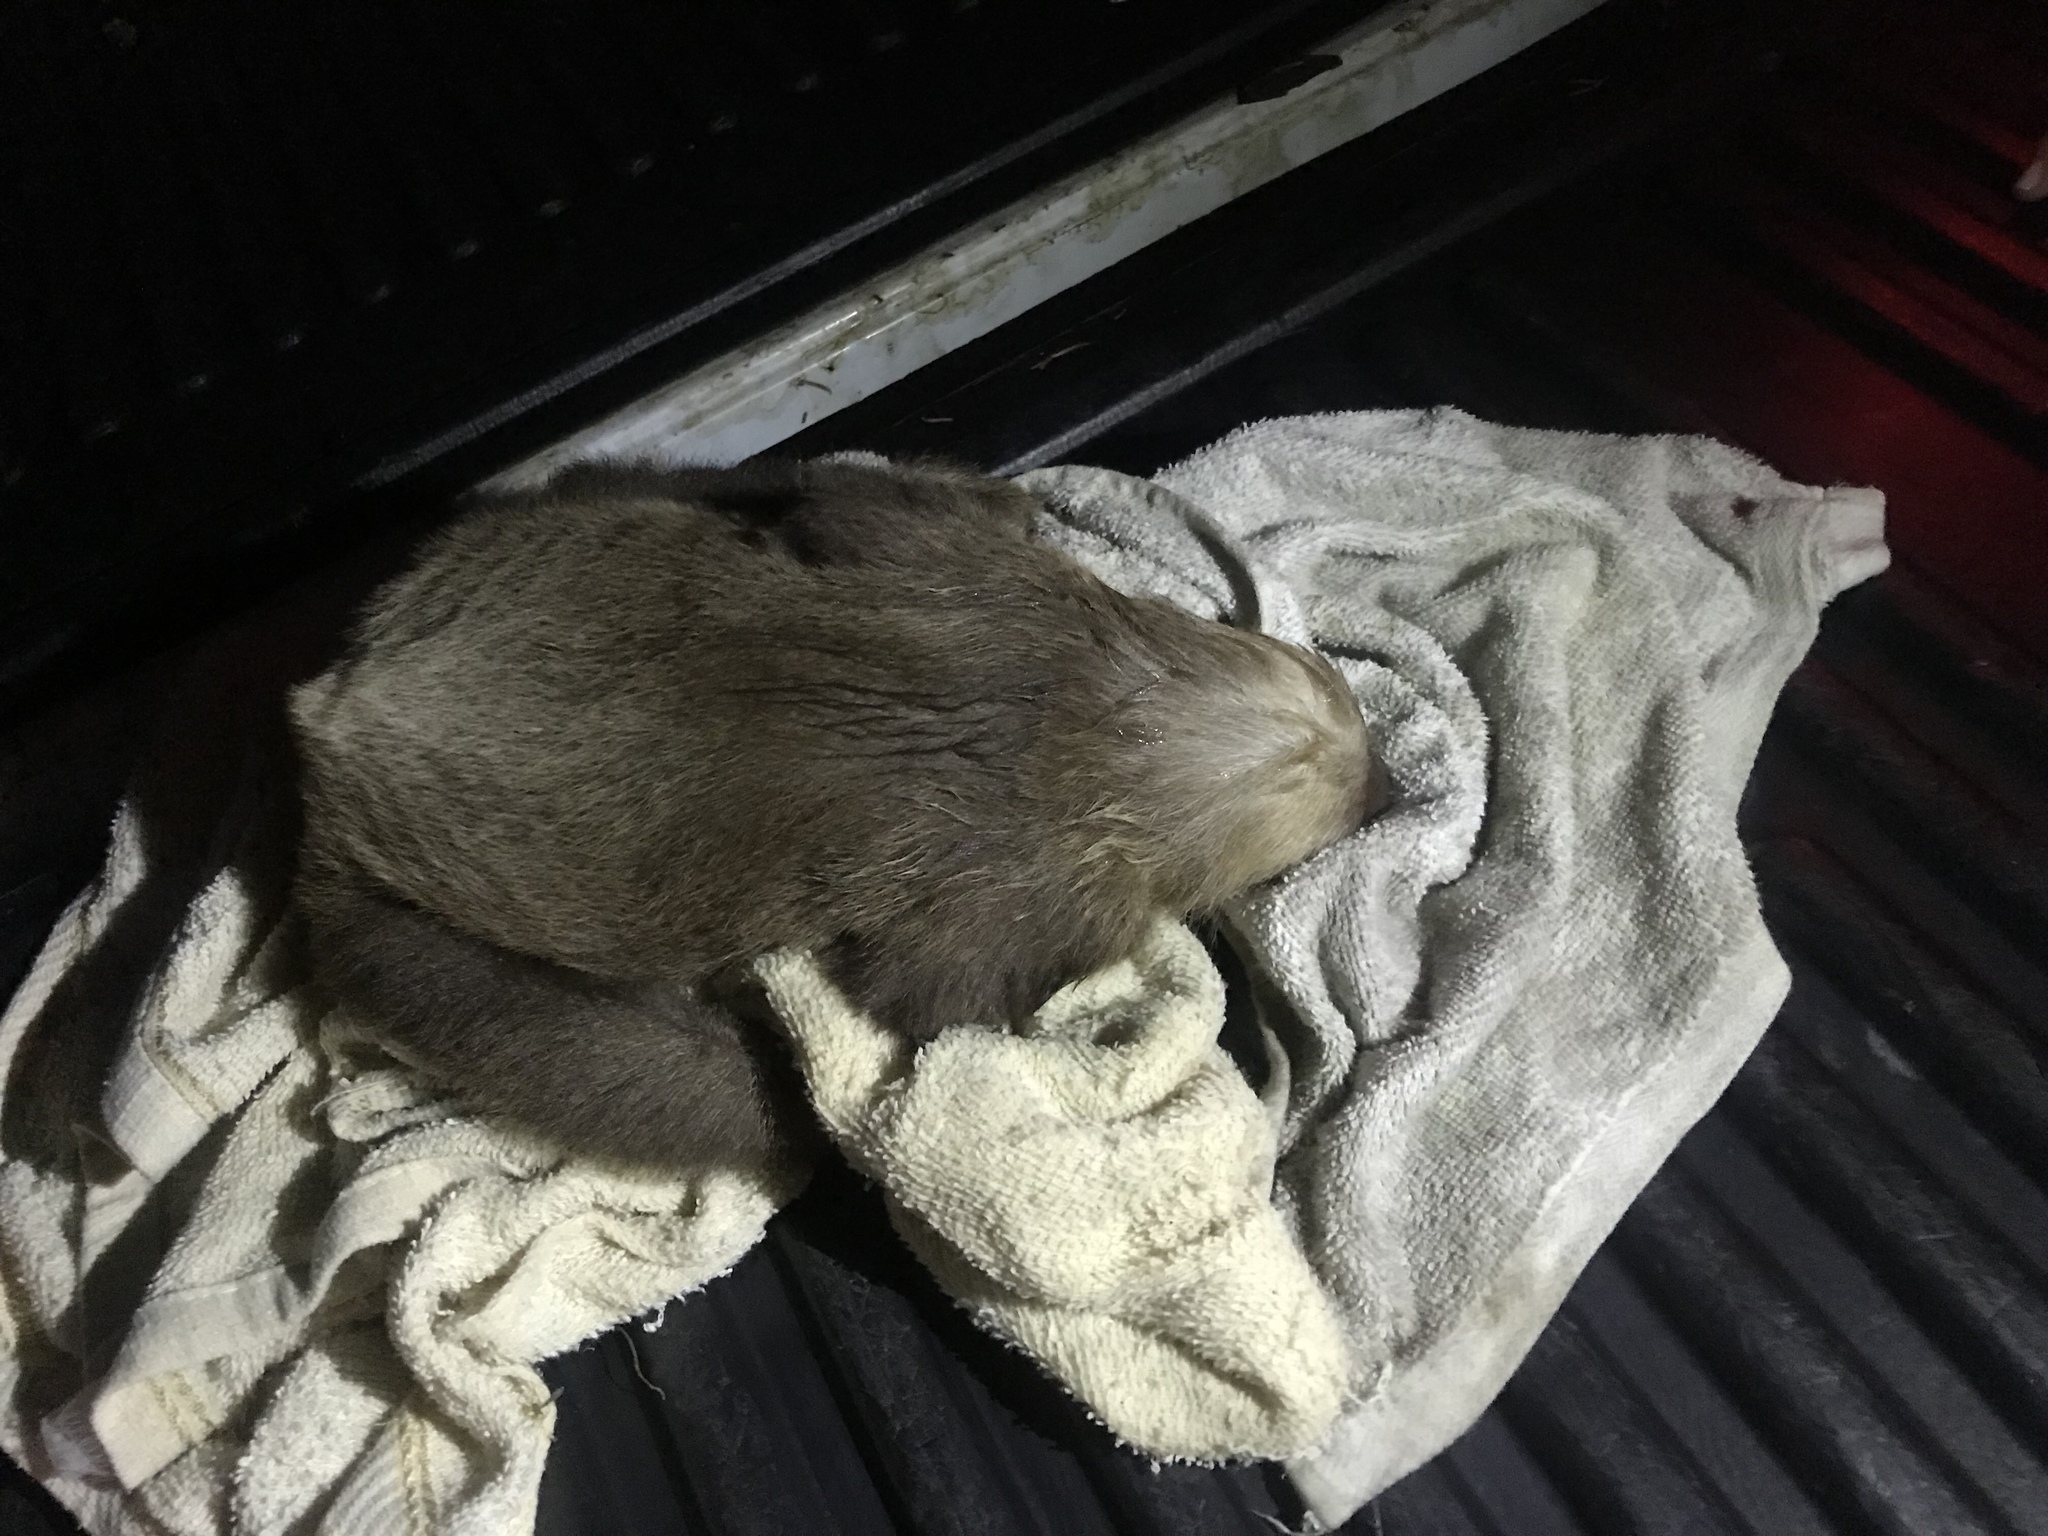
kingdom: Animalia
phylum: Chordata
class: Mammalia
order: Pilosa
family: Megalonychidae
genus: Choloepus
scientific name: Choloepus hoffmanni
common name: Hoffmann's two-toed sloth
